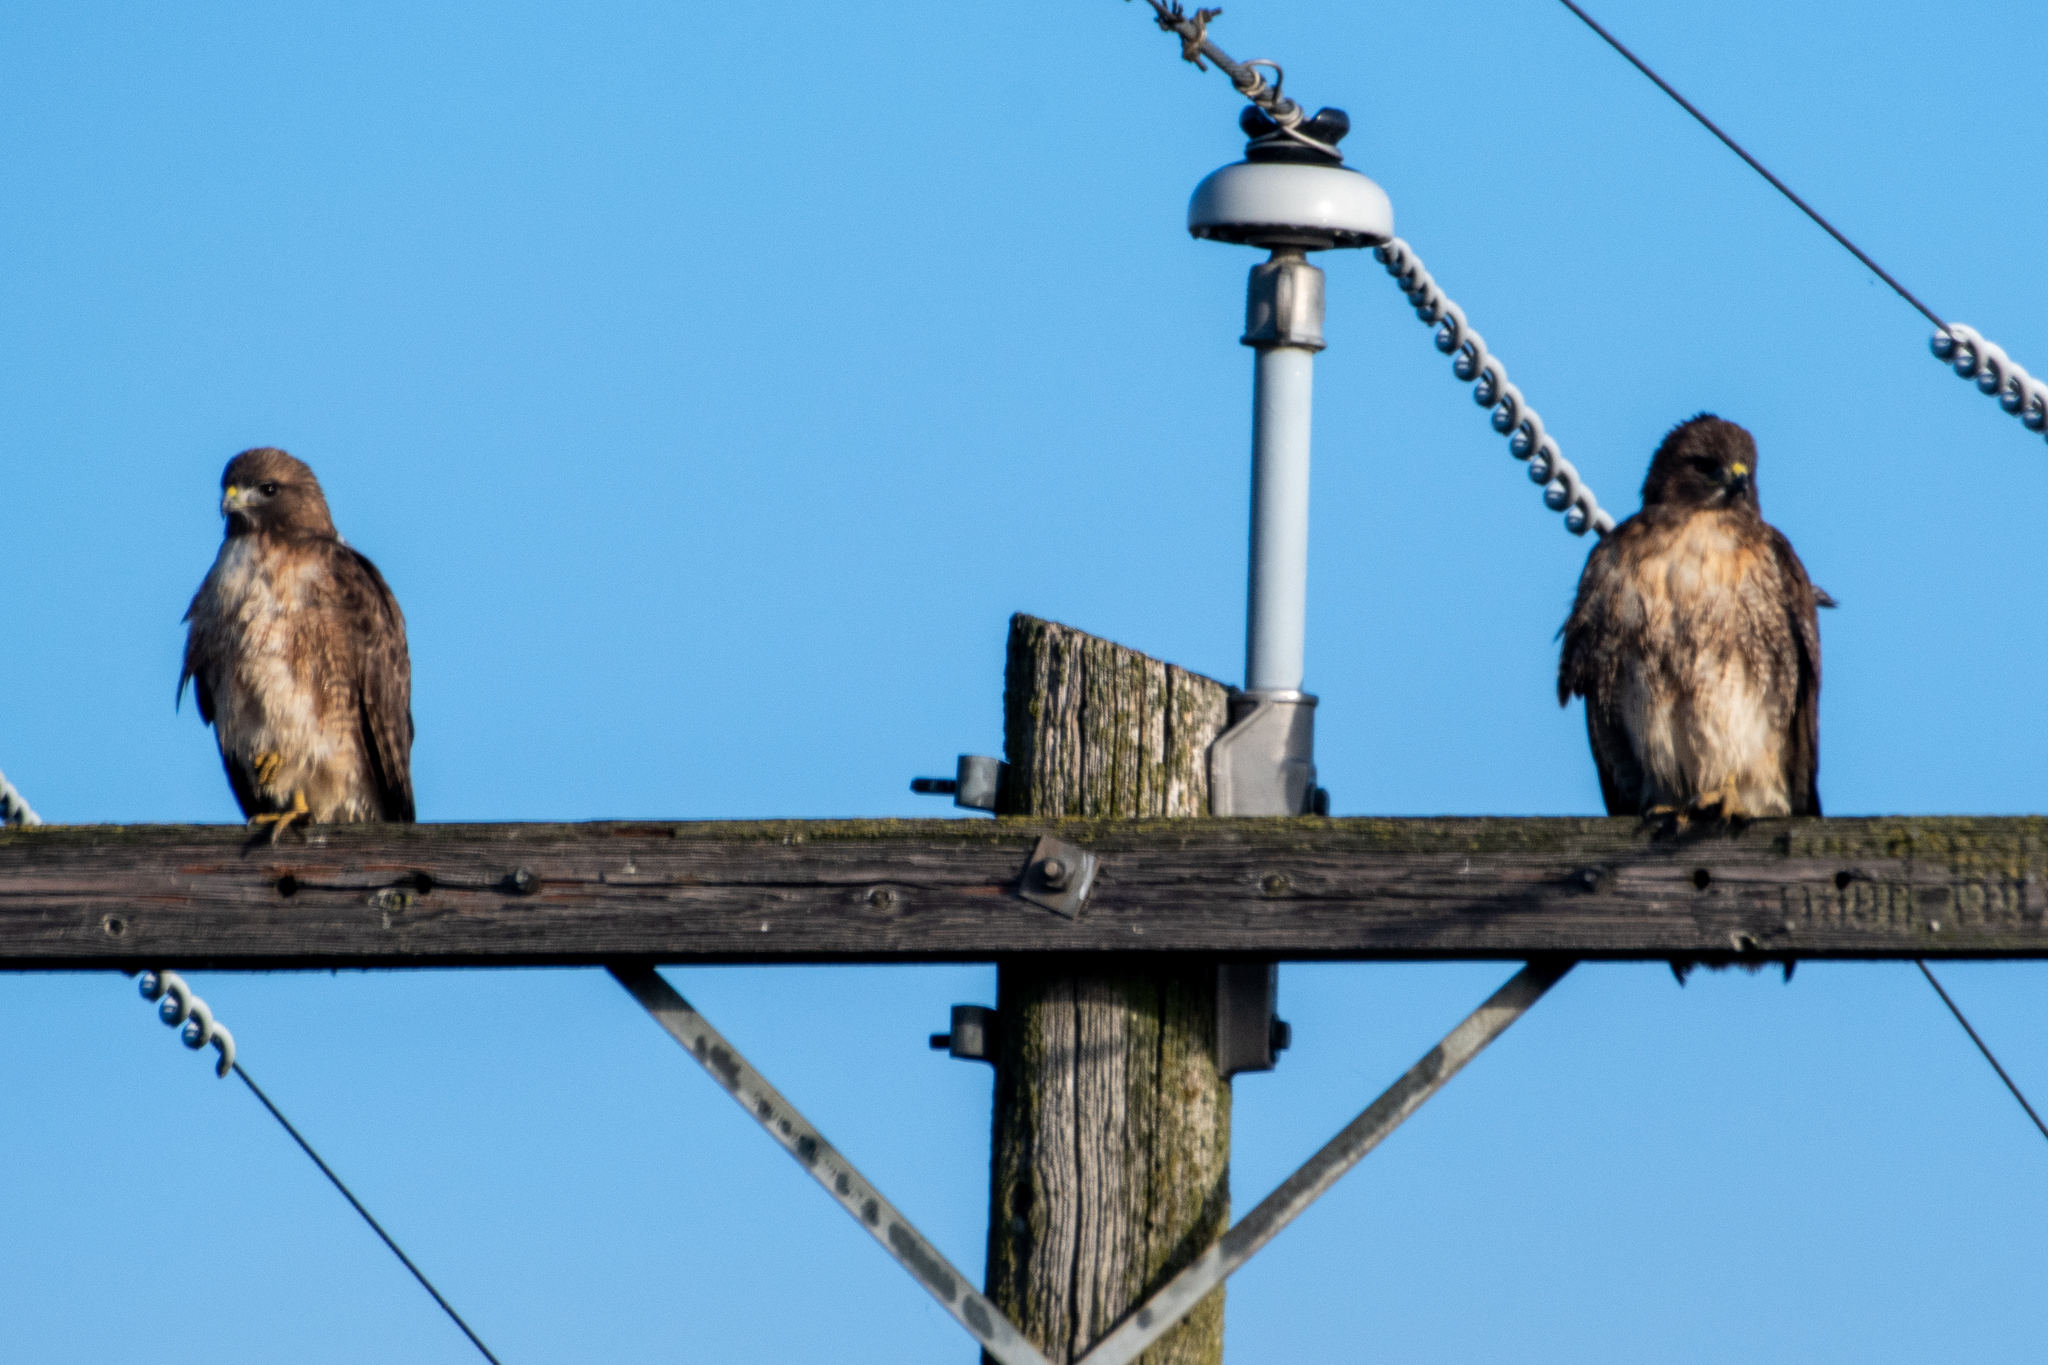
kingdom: Animalia
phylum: Chordata
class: Aves
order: Accipitriformes
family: Accipitridae
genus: Buteo
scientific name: Buteo jamaicensis
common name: Red-tailed hawk
